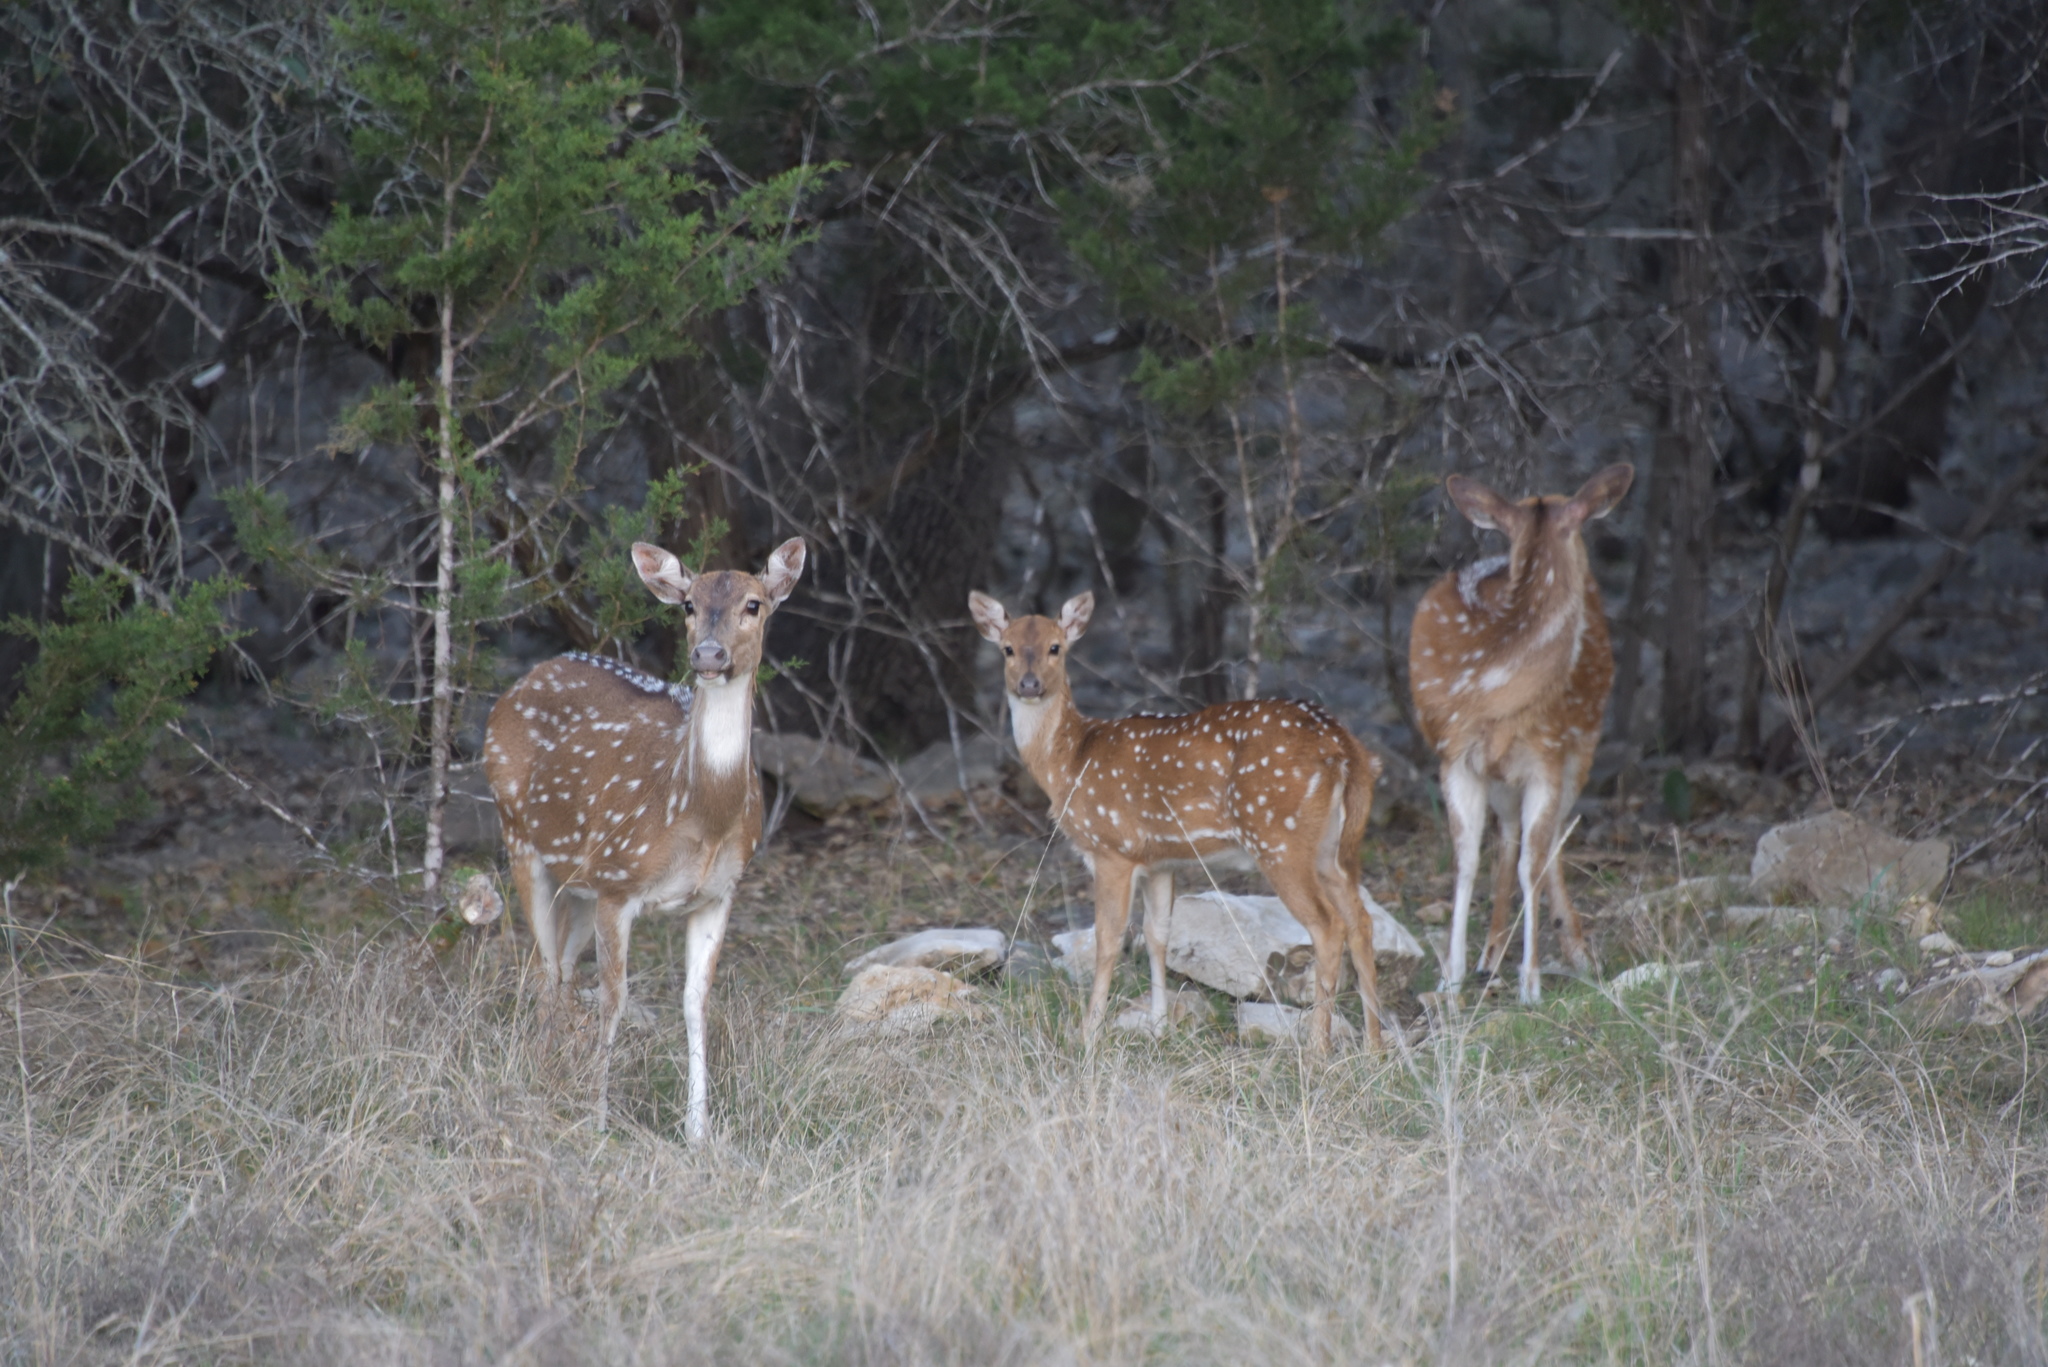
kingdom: Animalia
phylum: Chordata
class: Mammalia
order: Artiodactyla
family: Cervidae
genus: Axis
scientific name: Axis axis
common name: Chital
